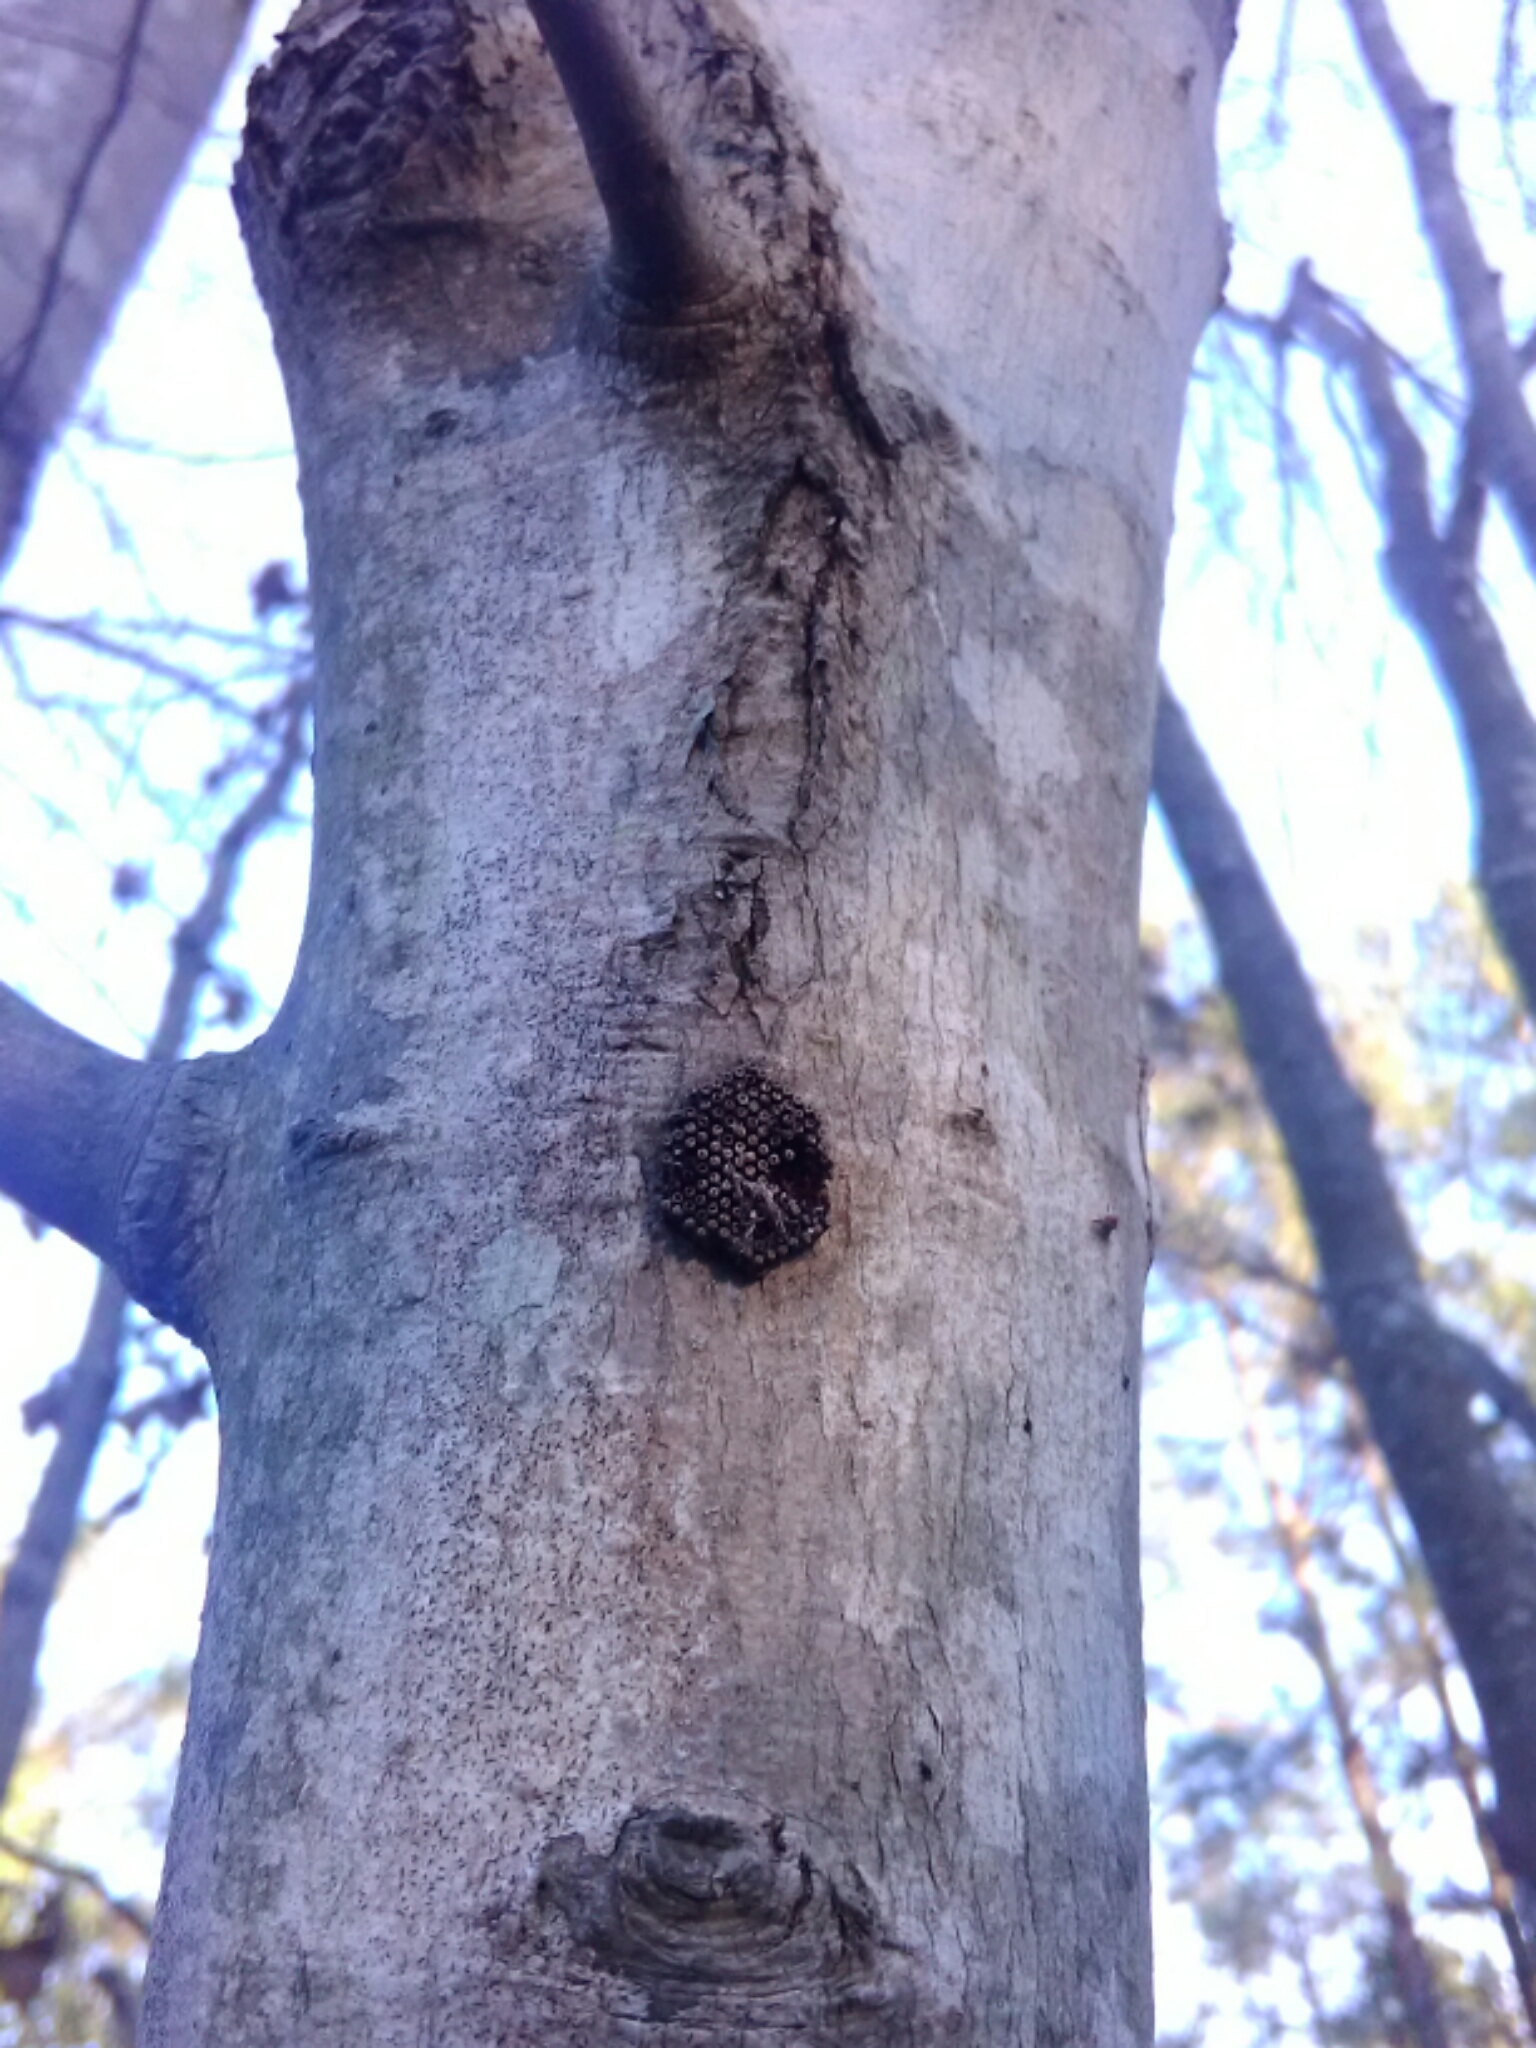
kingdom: Animalia
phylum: Arthropoda
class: Insecta
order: Hemiptera
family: Reduviidae
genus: Arilus
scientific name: Arilus cristatus
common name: North american wheel bug
